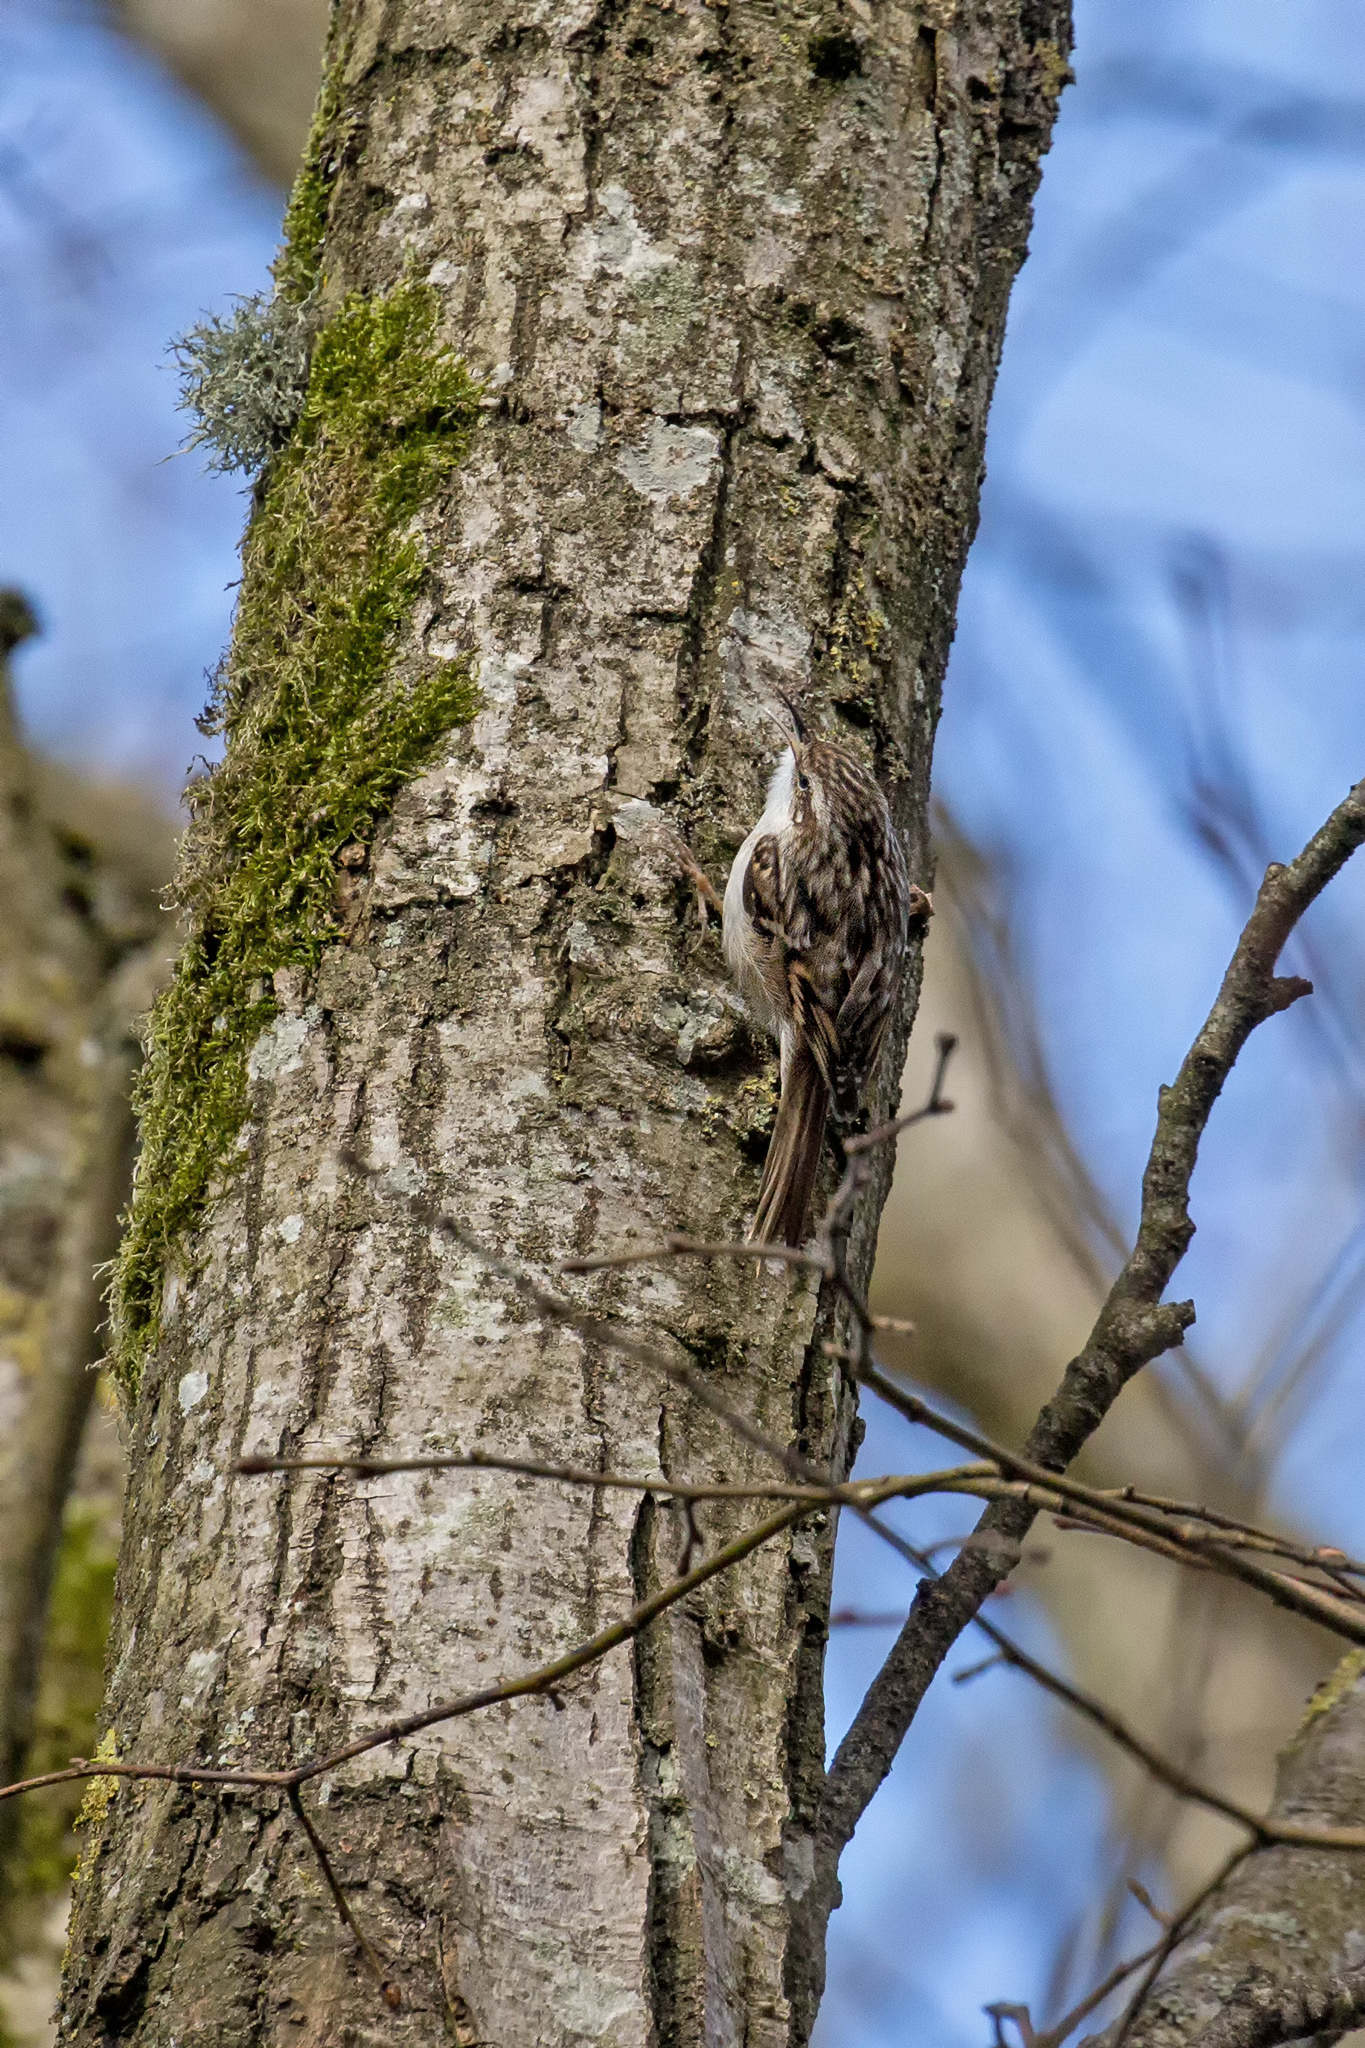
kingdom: Animalia
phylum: Chordata
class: Aves
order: Passeriformes
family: Certhiidae
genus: Certhia
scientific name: Certhia familiaris
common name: Eurasian treecreeper
